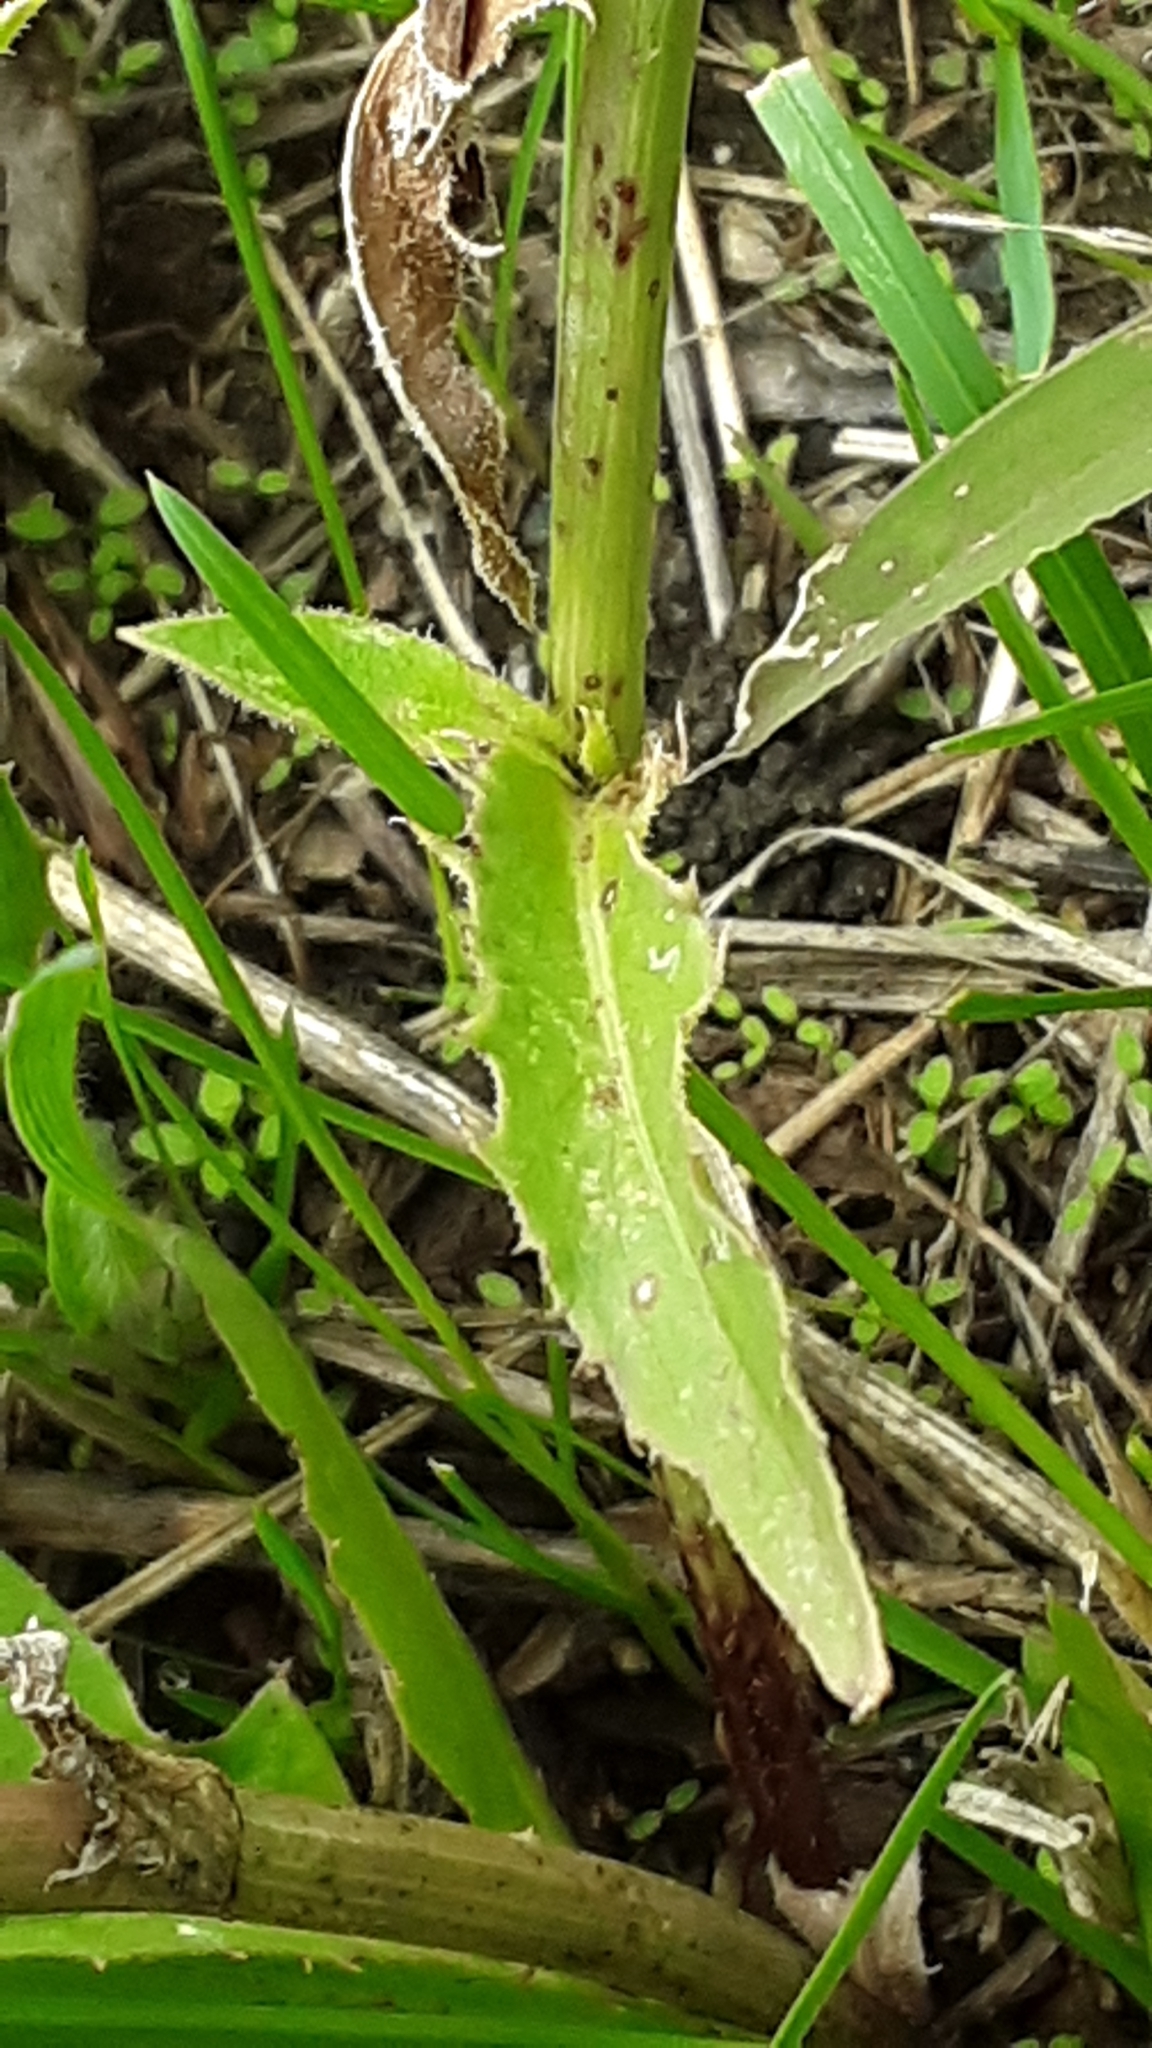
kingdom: Plantae
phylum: Tracheophyta
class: Magnoliopsida
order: Asterales
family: Asteraceae
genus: Cichorium
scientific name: Cichorium intybus
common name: Chicory
